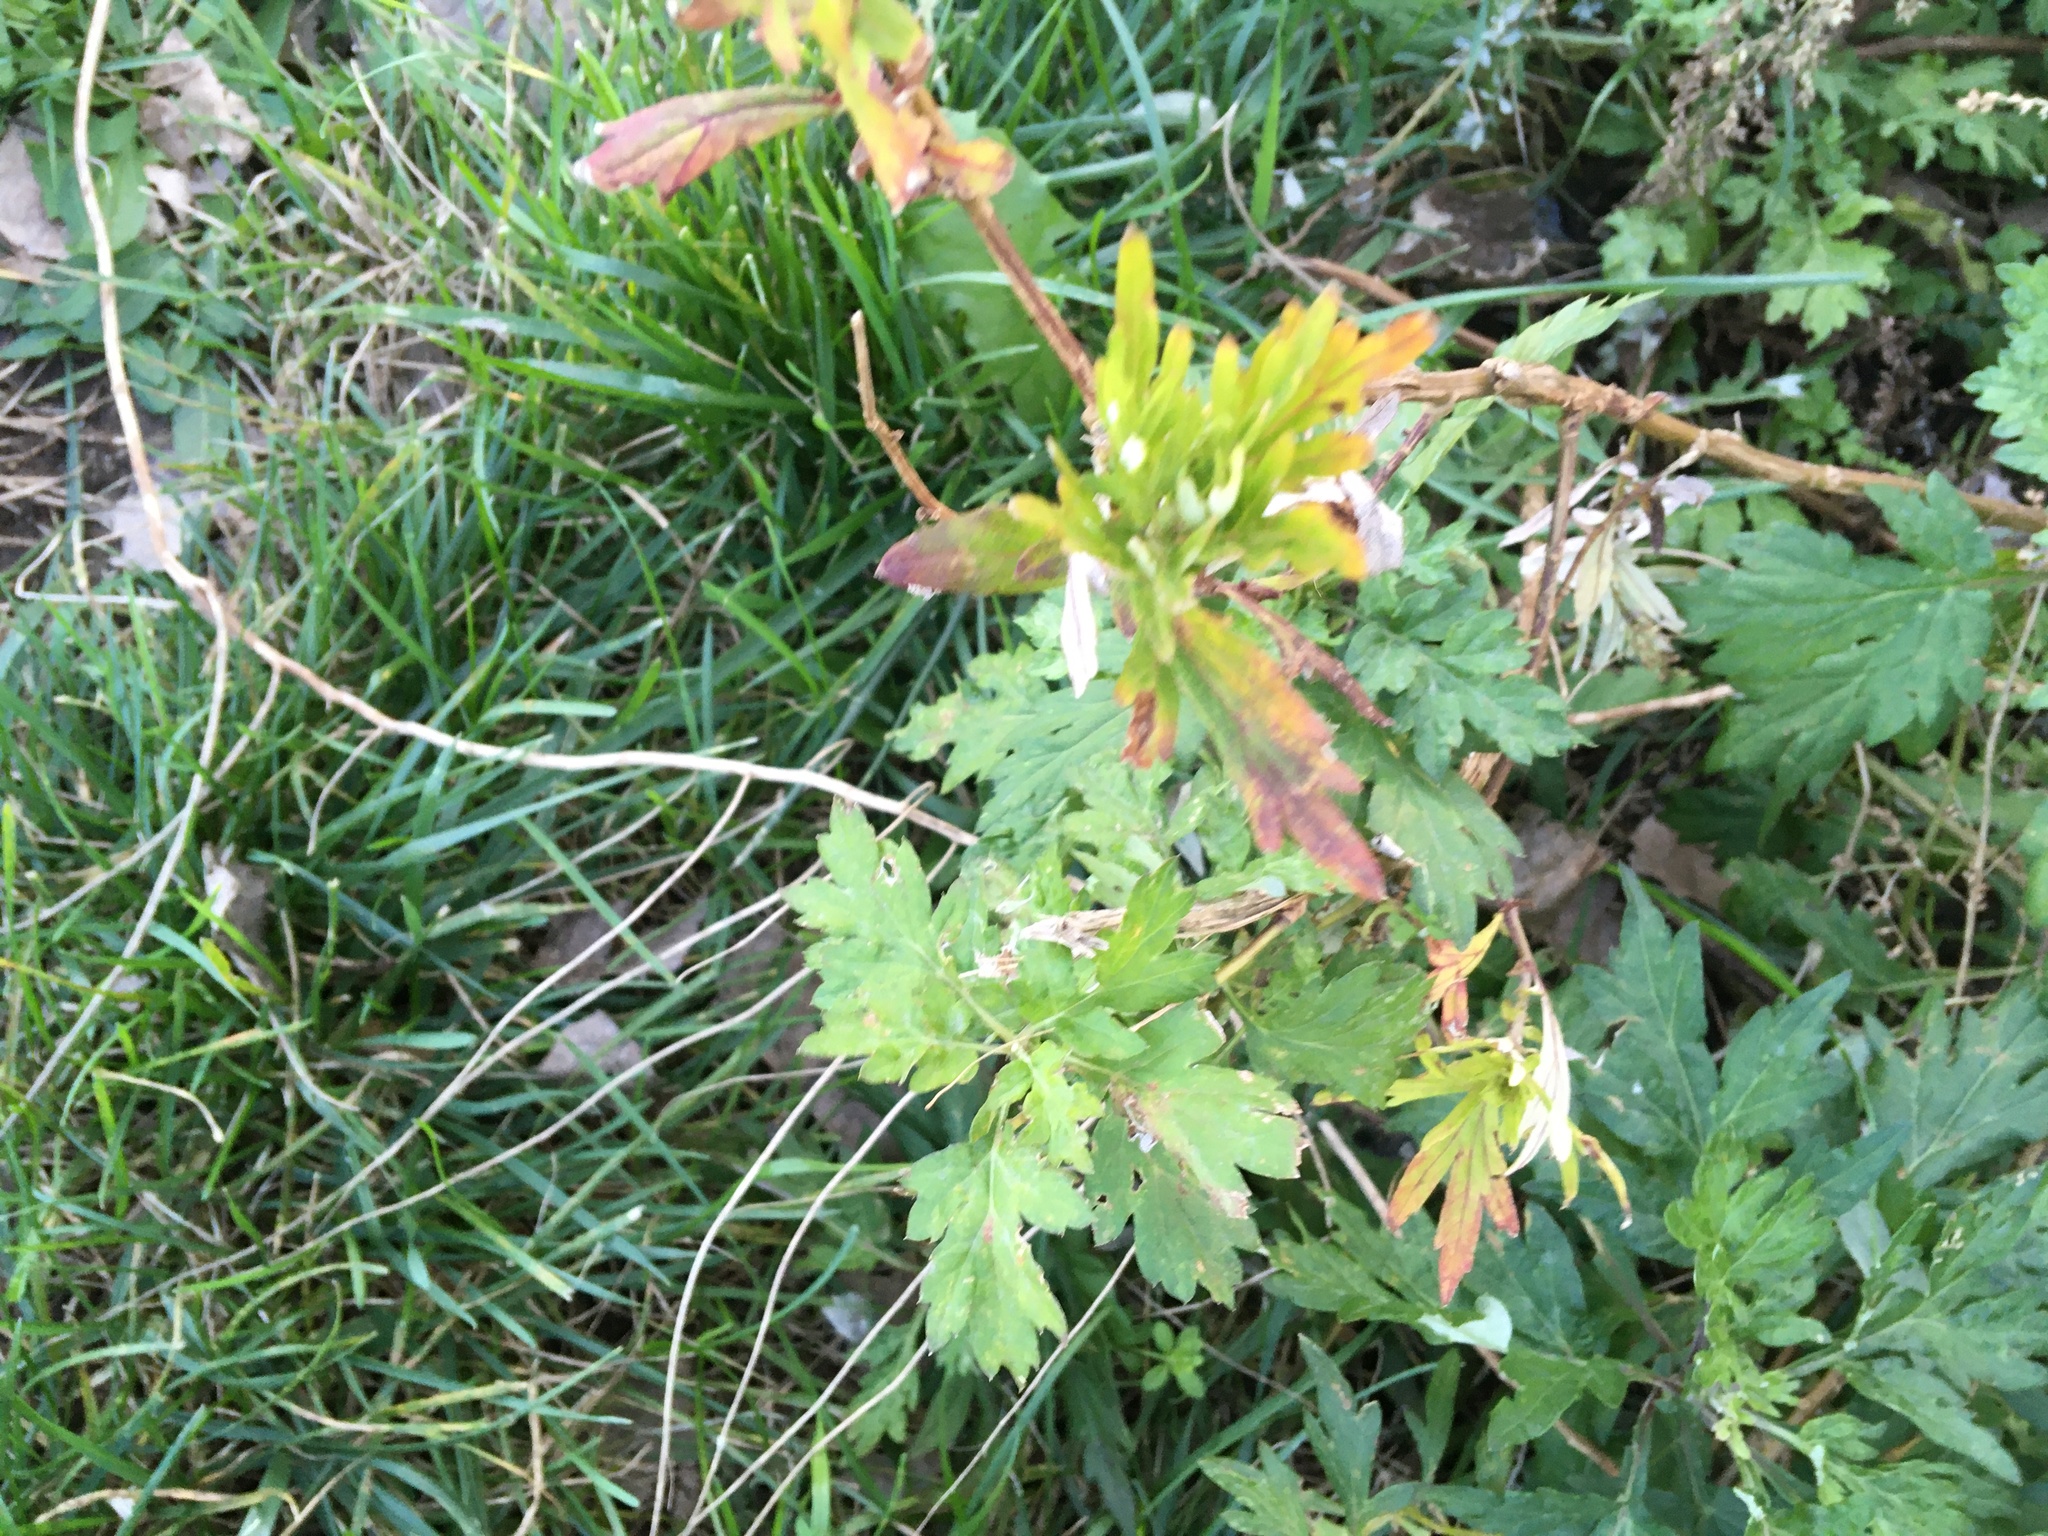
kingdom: Plantae
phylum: Tracheophyta
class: Magnoliopsida
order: Asterales
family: Asteraceae
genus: Artemisia
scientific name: Artemisia vulgaris
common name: Mugwort
